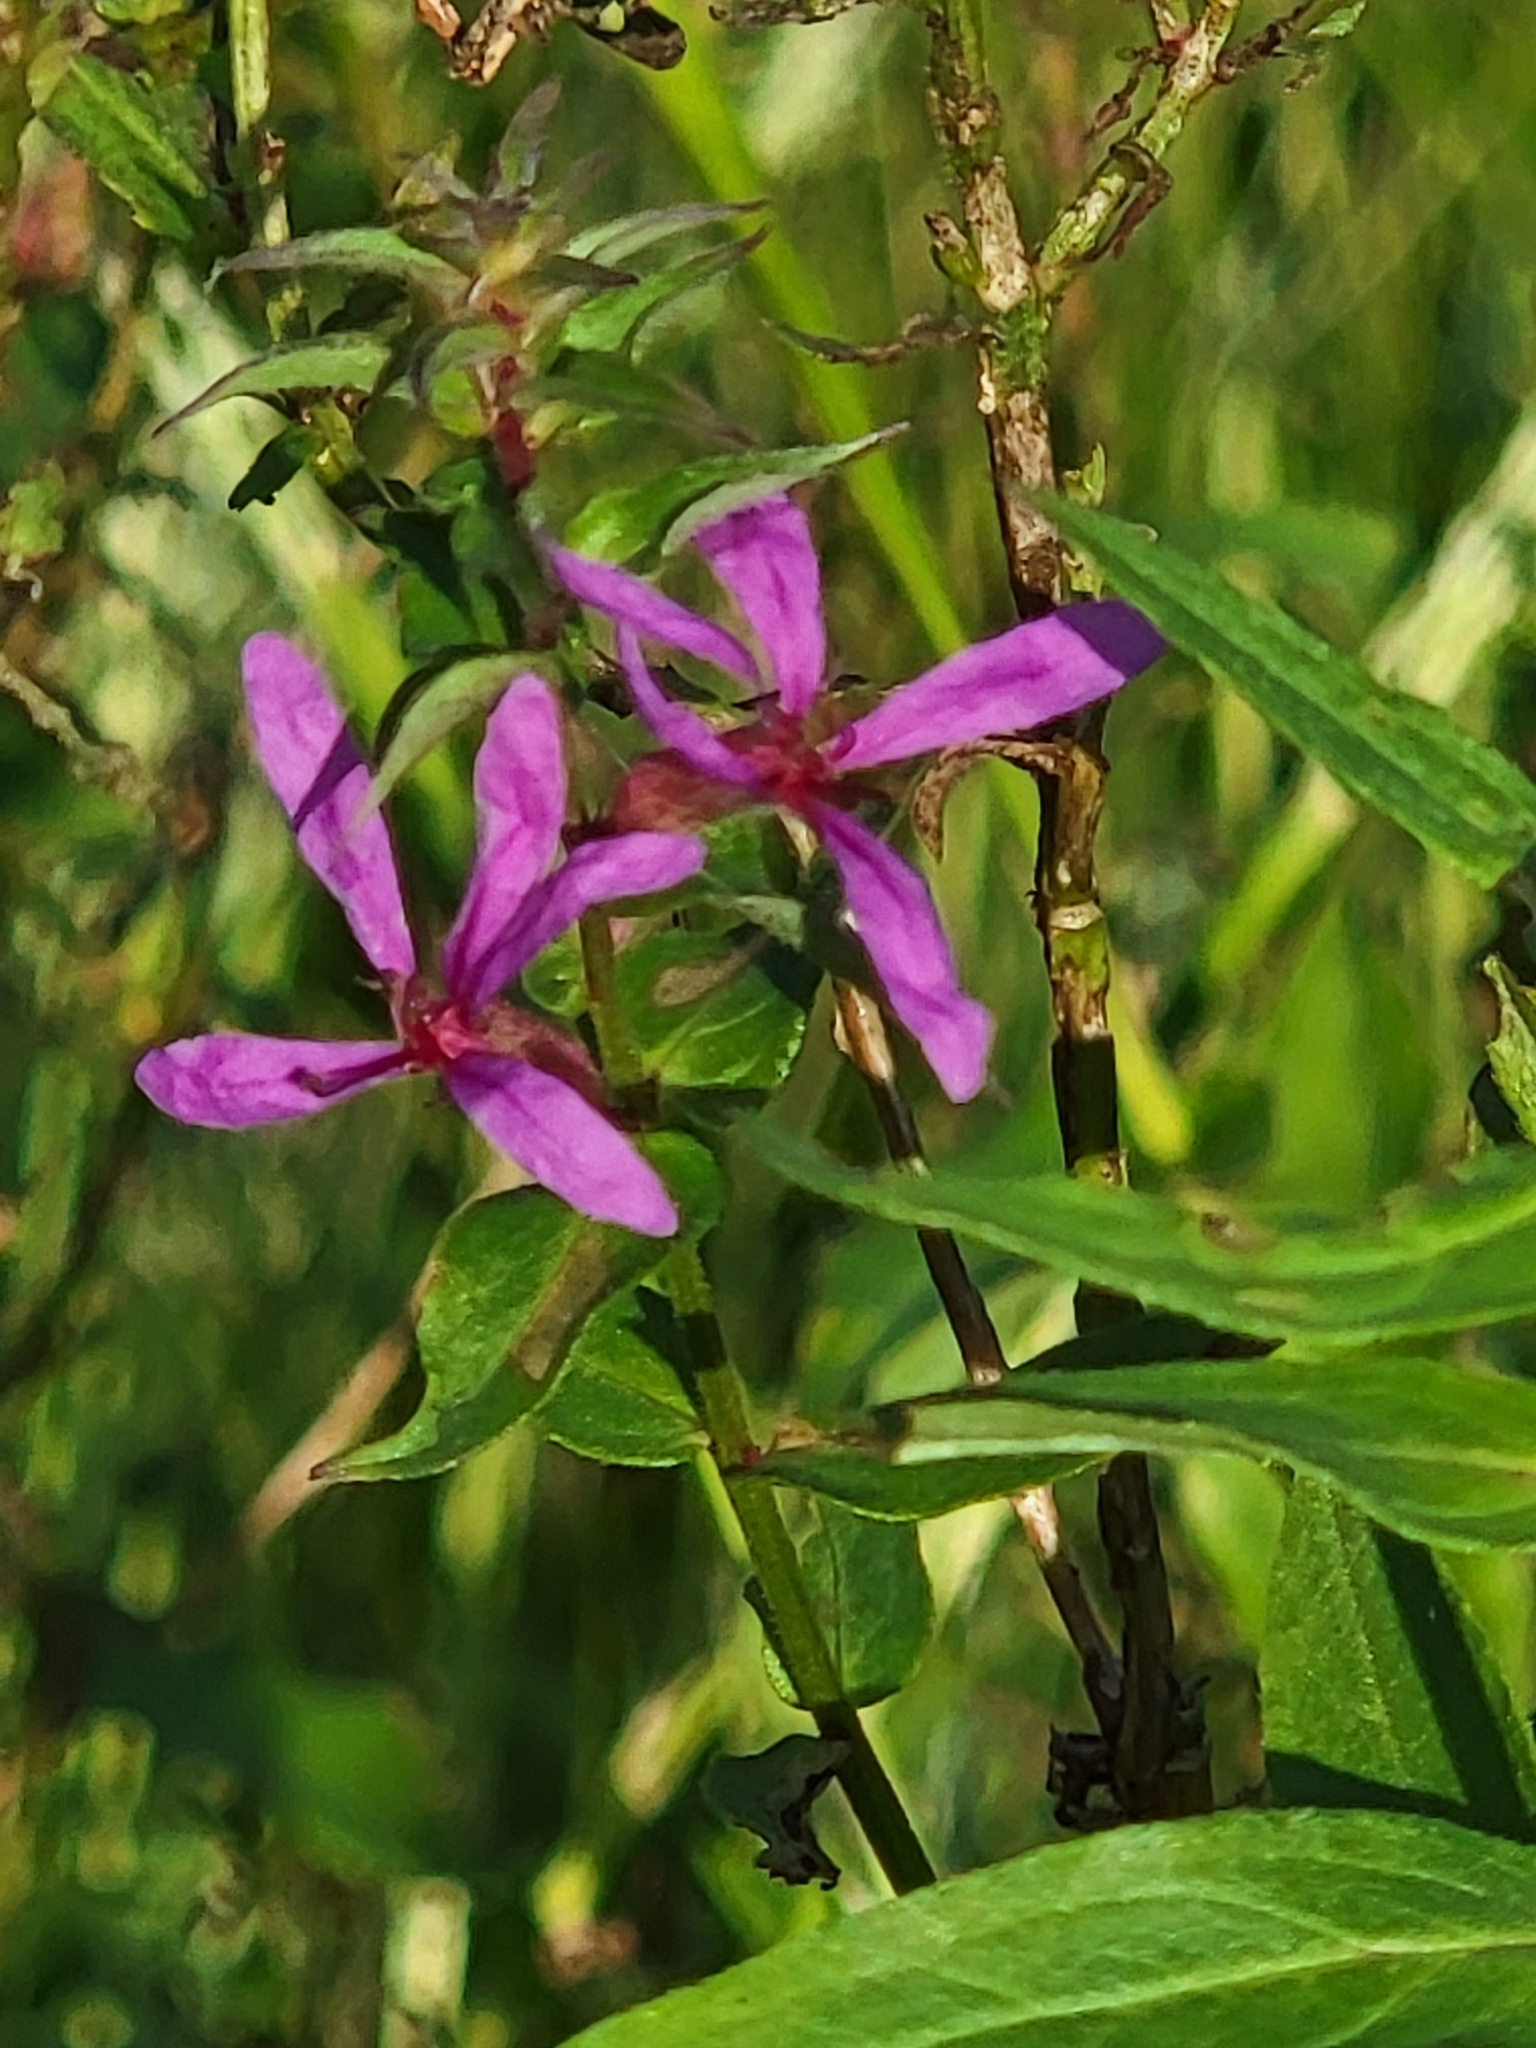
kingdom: Plantae
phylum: Tracheophyta
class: Magnoliopsida
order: Myrtales
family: Lythraceae
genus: Lythrum
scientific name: Lythrum salicaria
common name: Purple loosestrife
